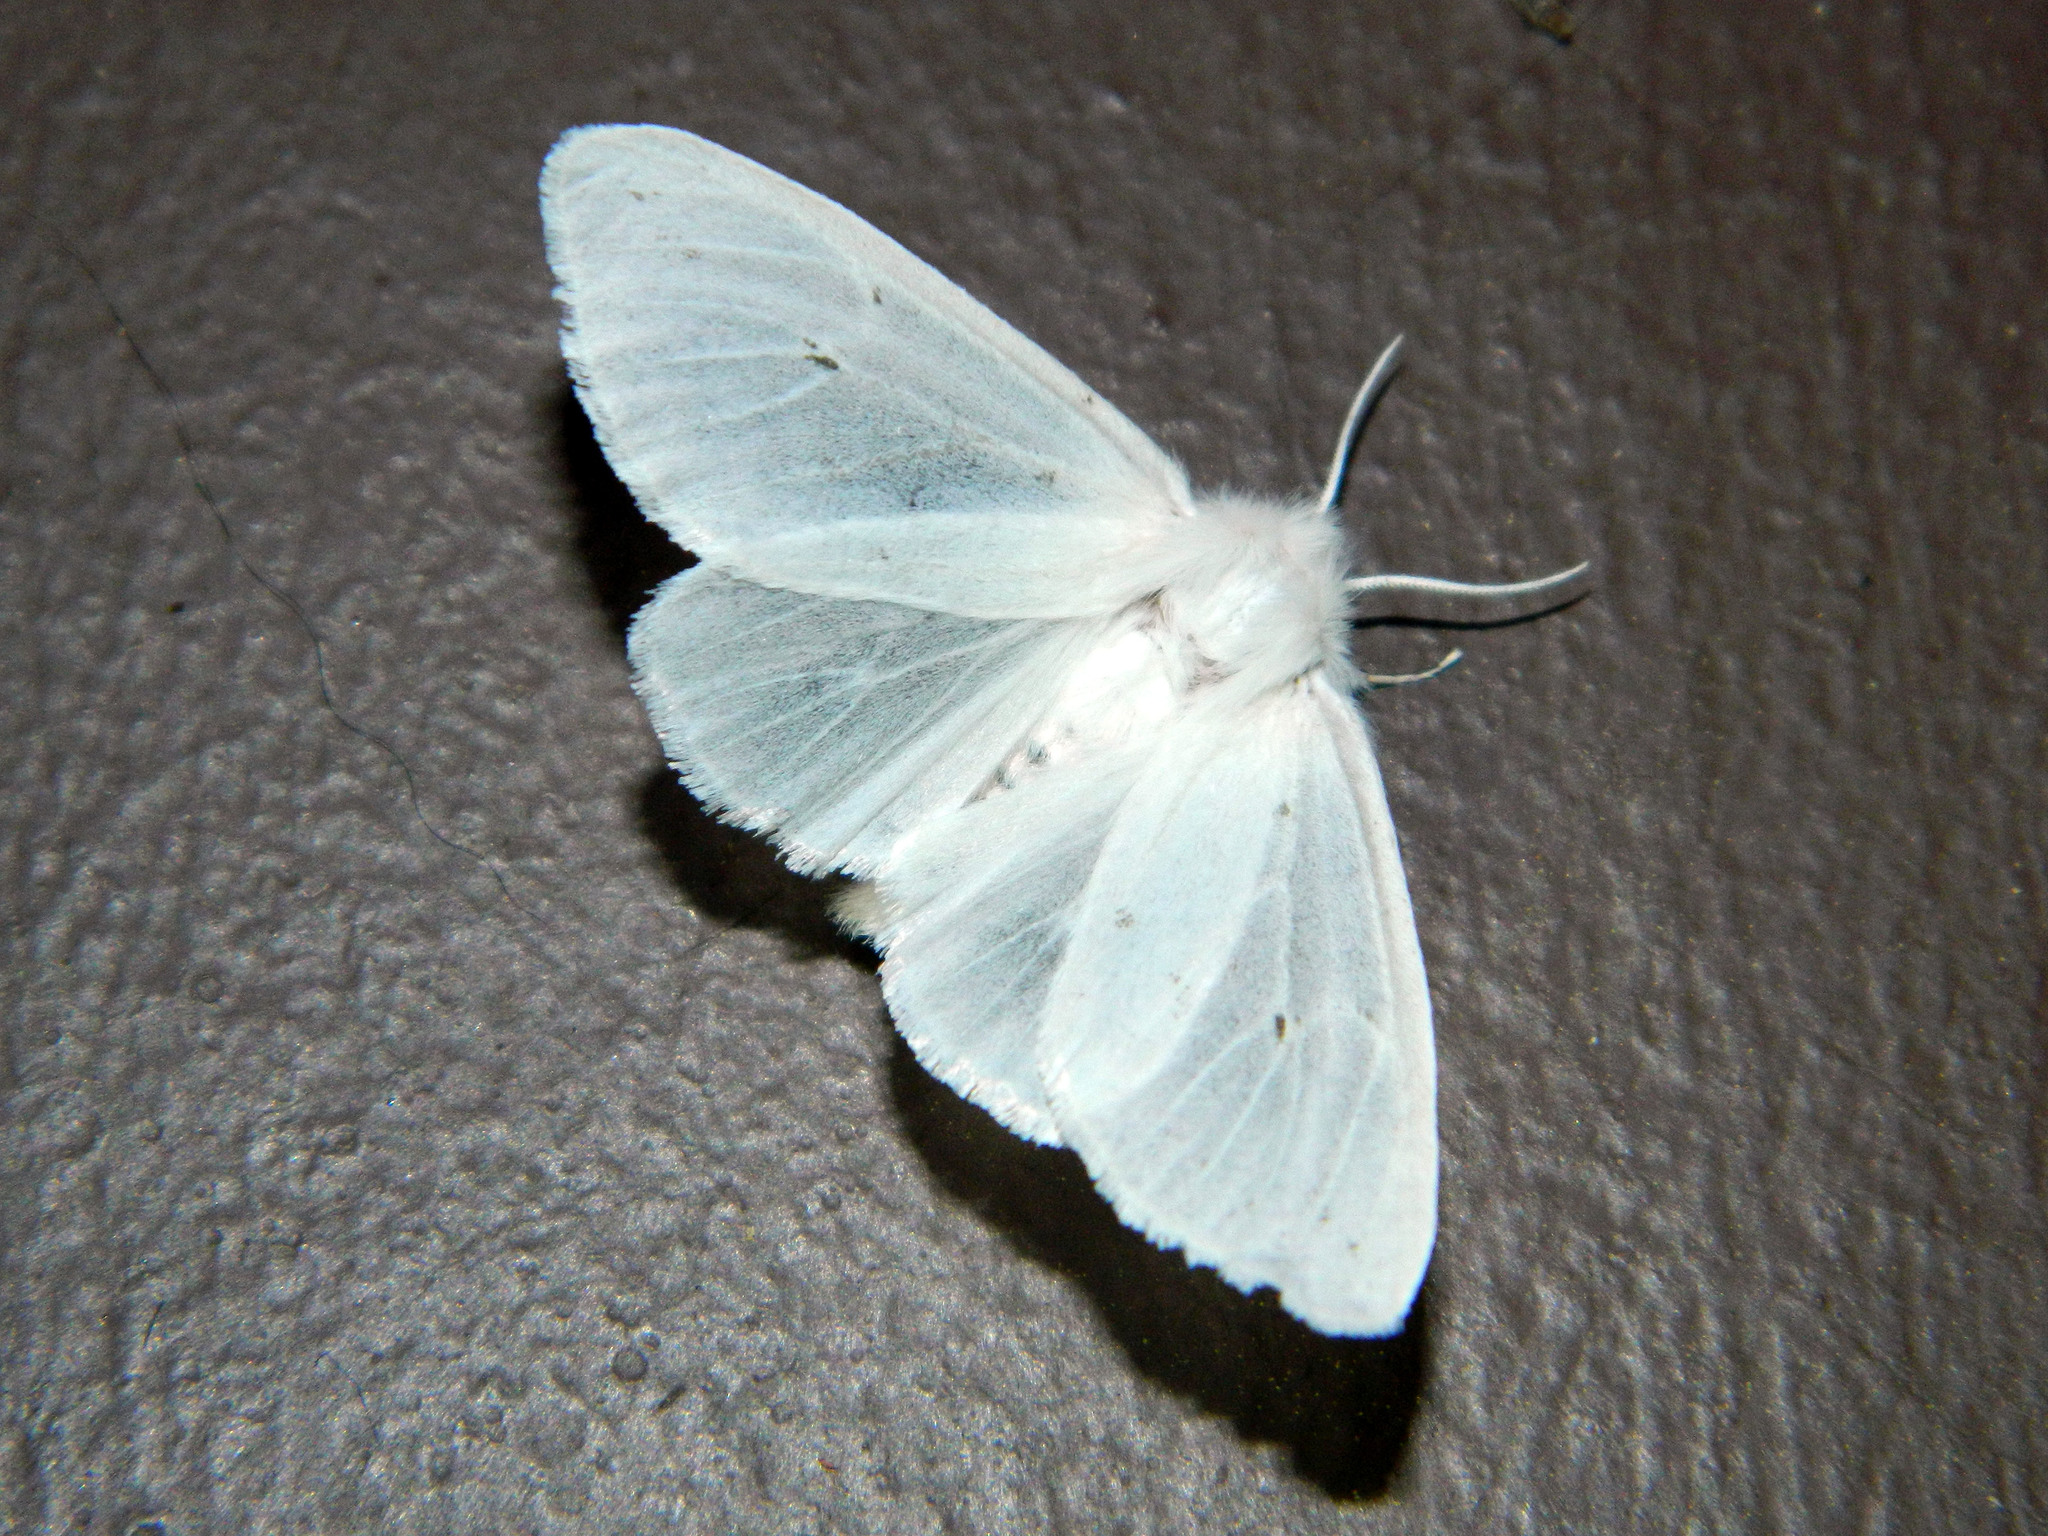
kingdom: Animalia
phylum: Arthropoda
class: Insecta
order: Lepidoptera
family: Erebidae
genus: Spilosoma
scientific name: Spilosoma virginica
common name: Virginia tiger moth
